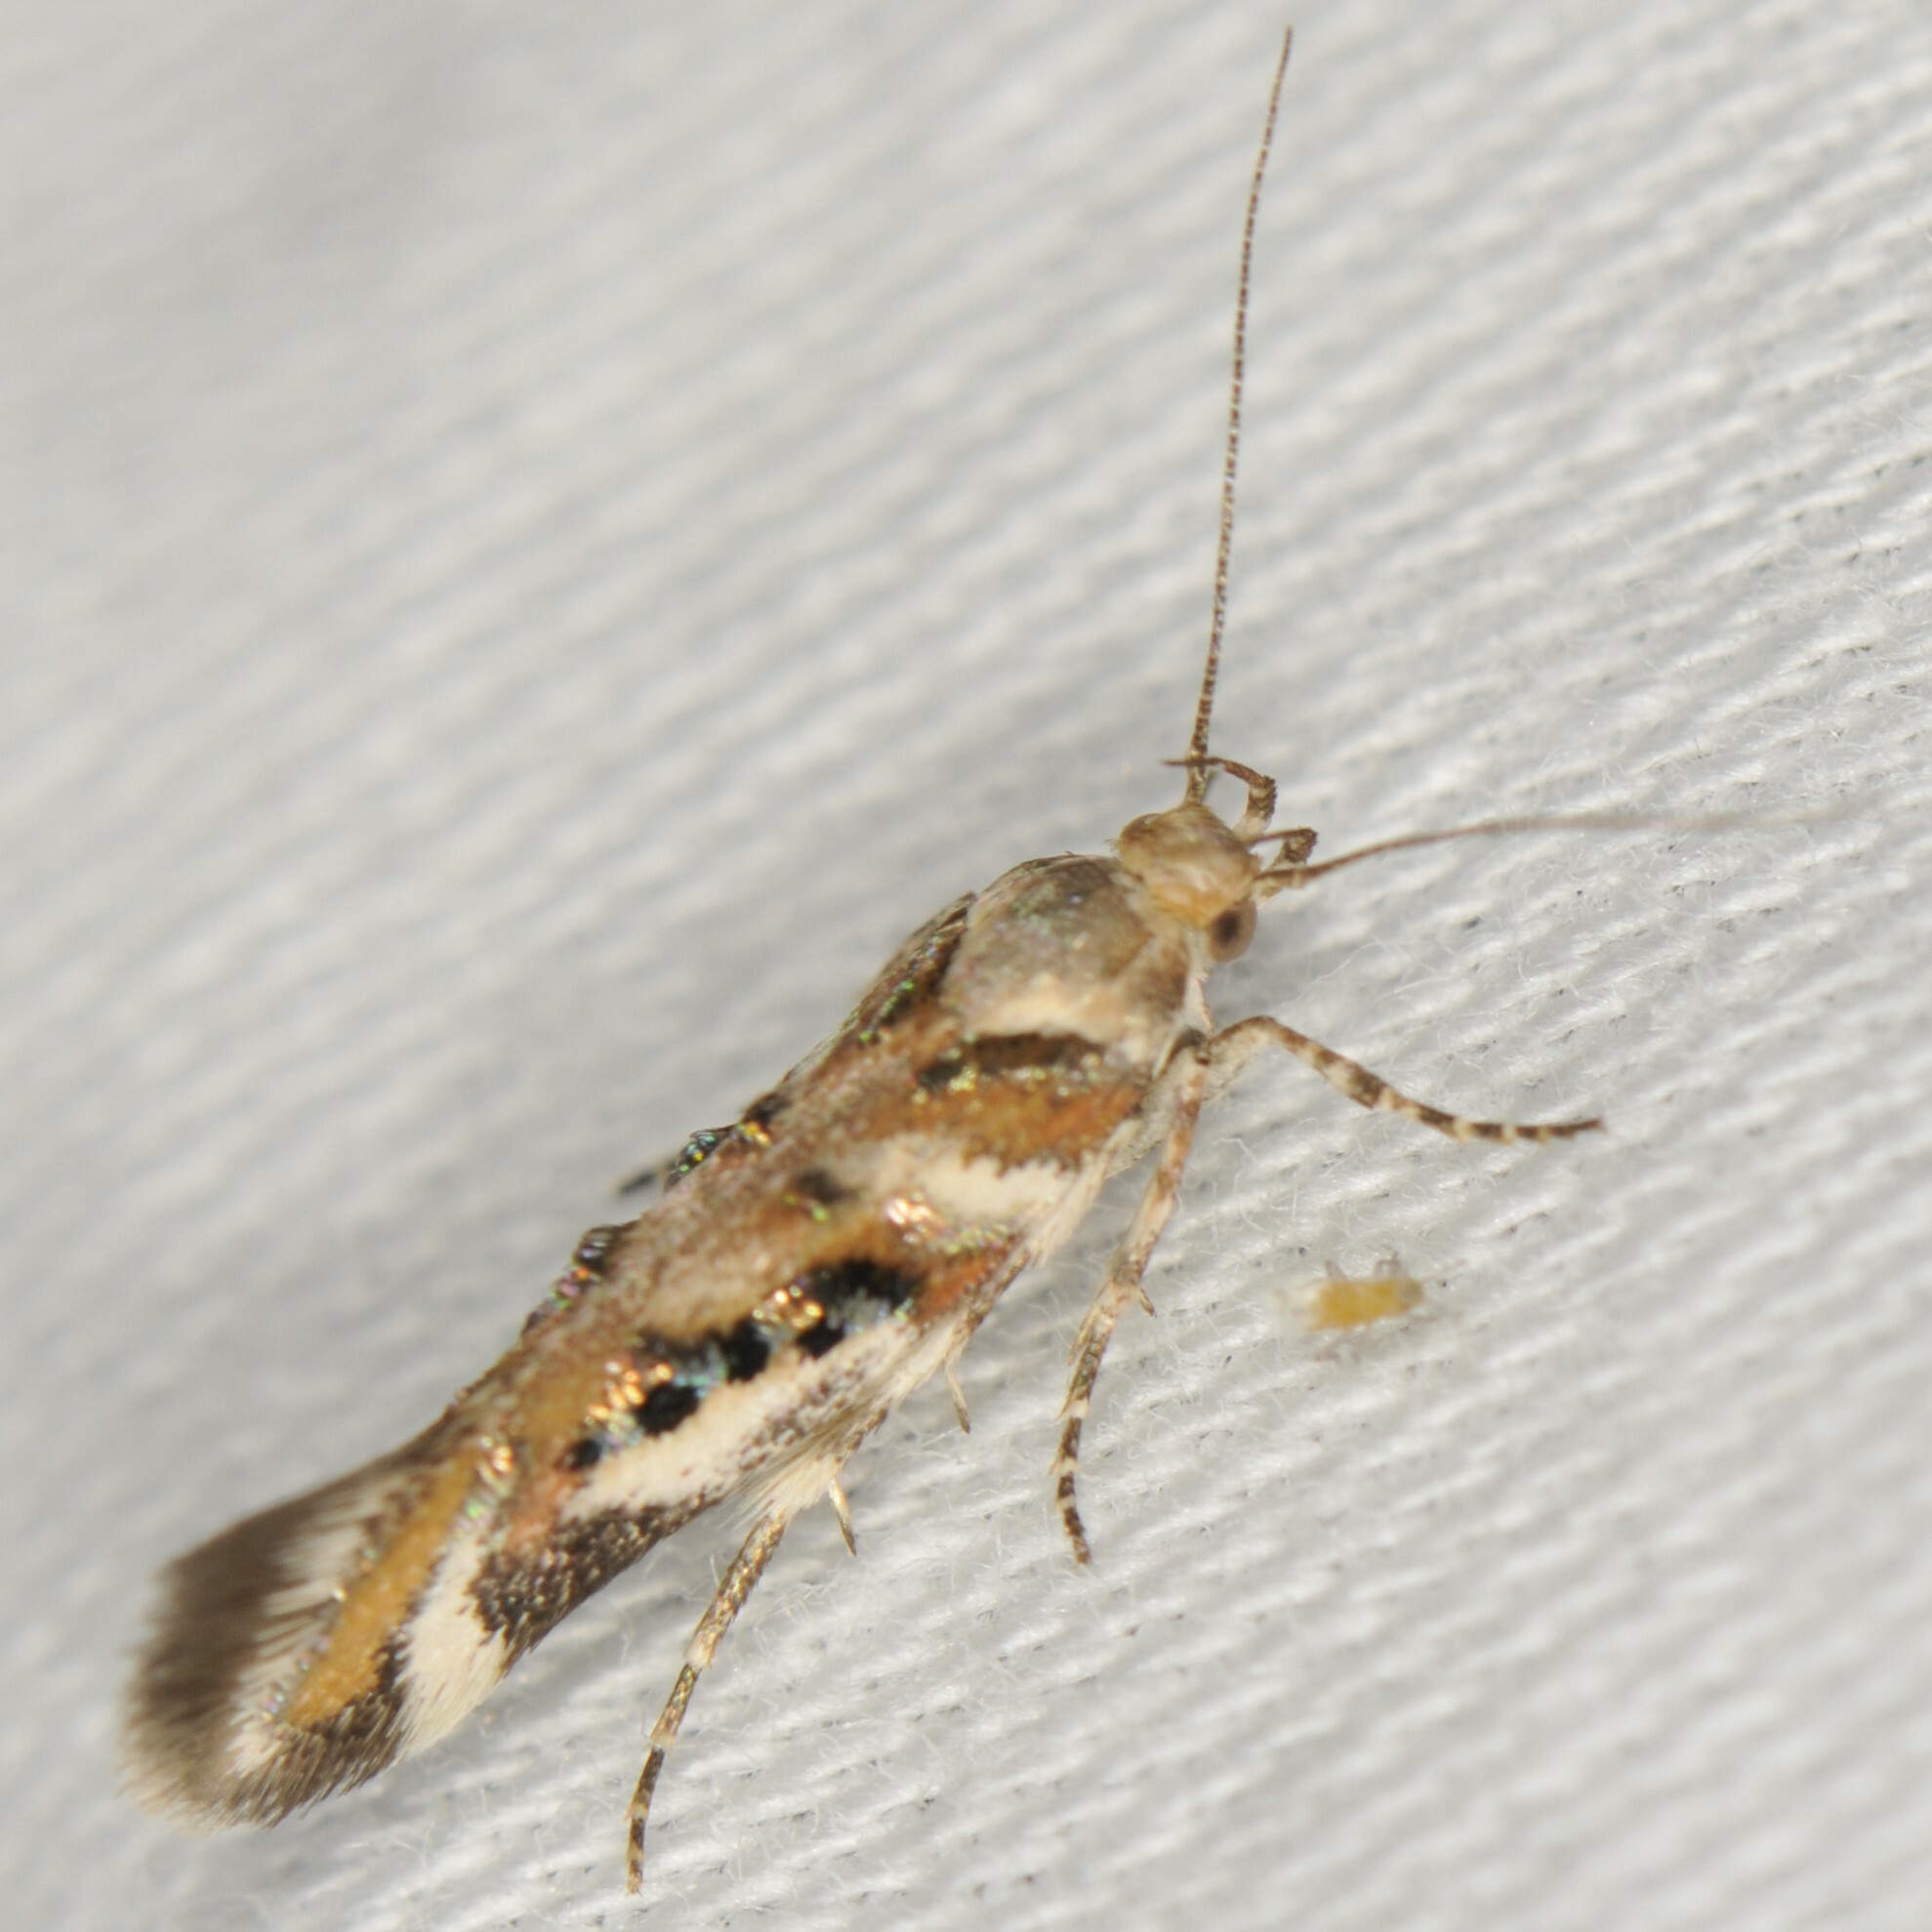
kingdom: Animalia
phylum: Arthropoda
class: Insecta
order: Lepidoptera
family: Gelechiidae
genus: Aristotelia
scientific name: Aristotelia elegantella
